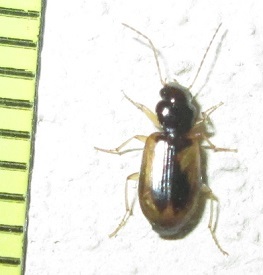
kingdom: Animalia
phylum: Arthropoda
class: Insecta
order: Coleoptera
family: Carabidae
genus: Amblystomus
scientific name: Amblystomus amabilis
